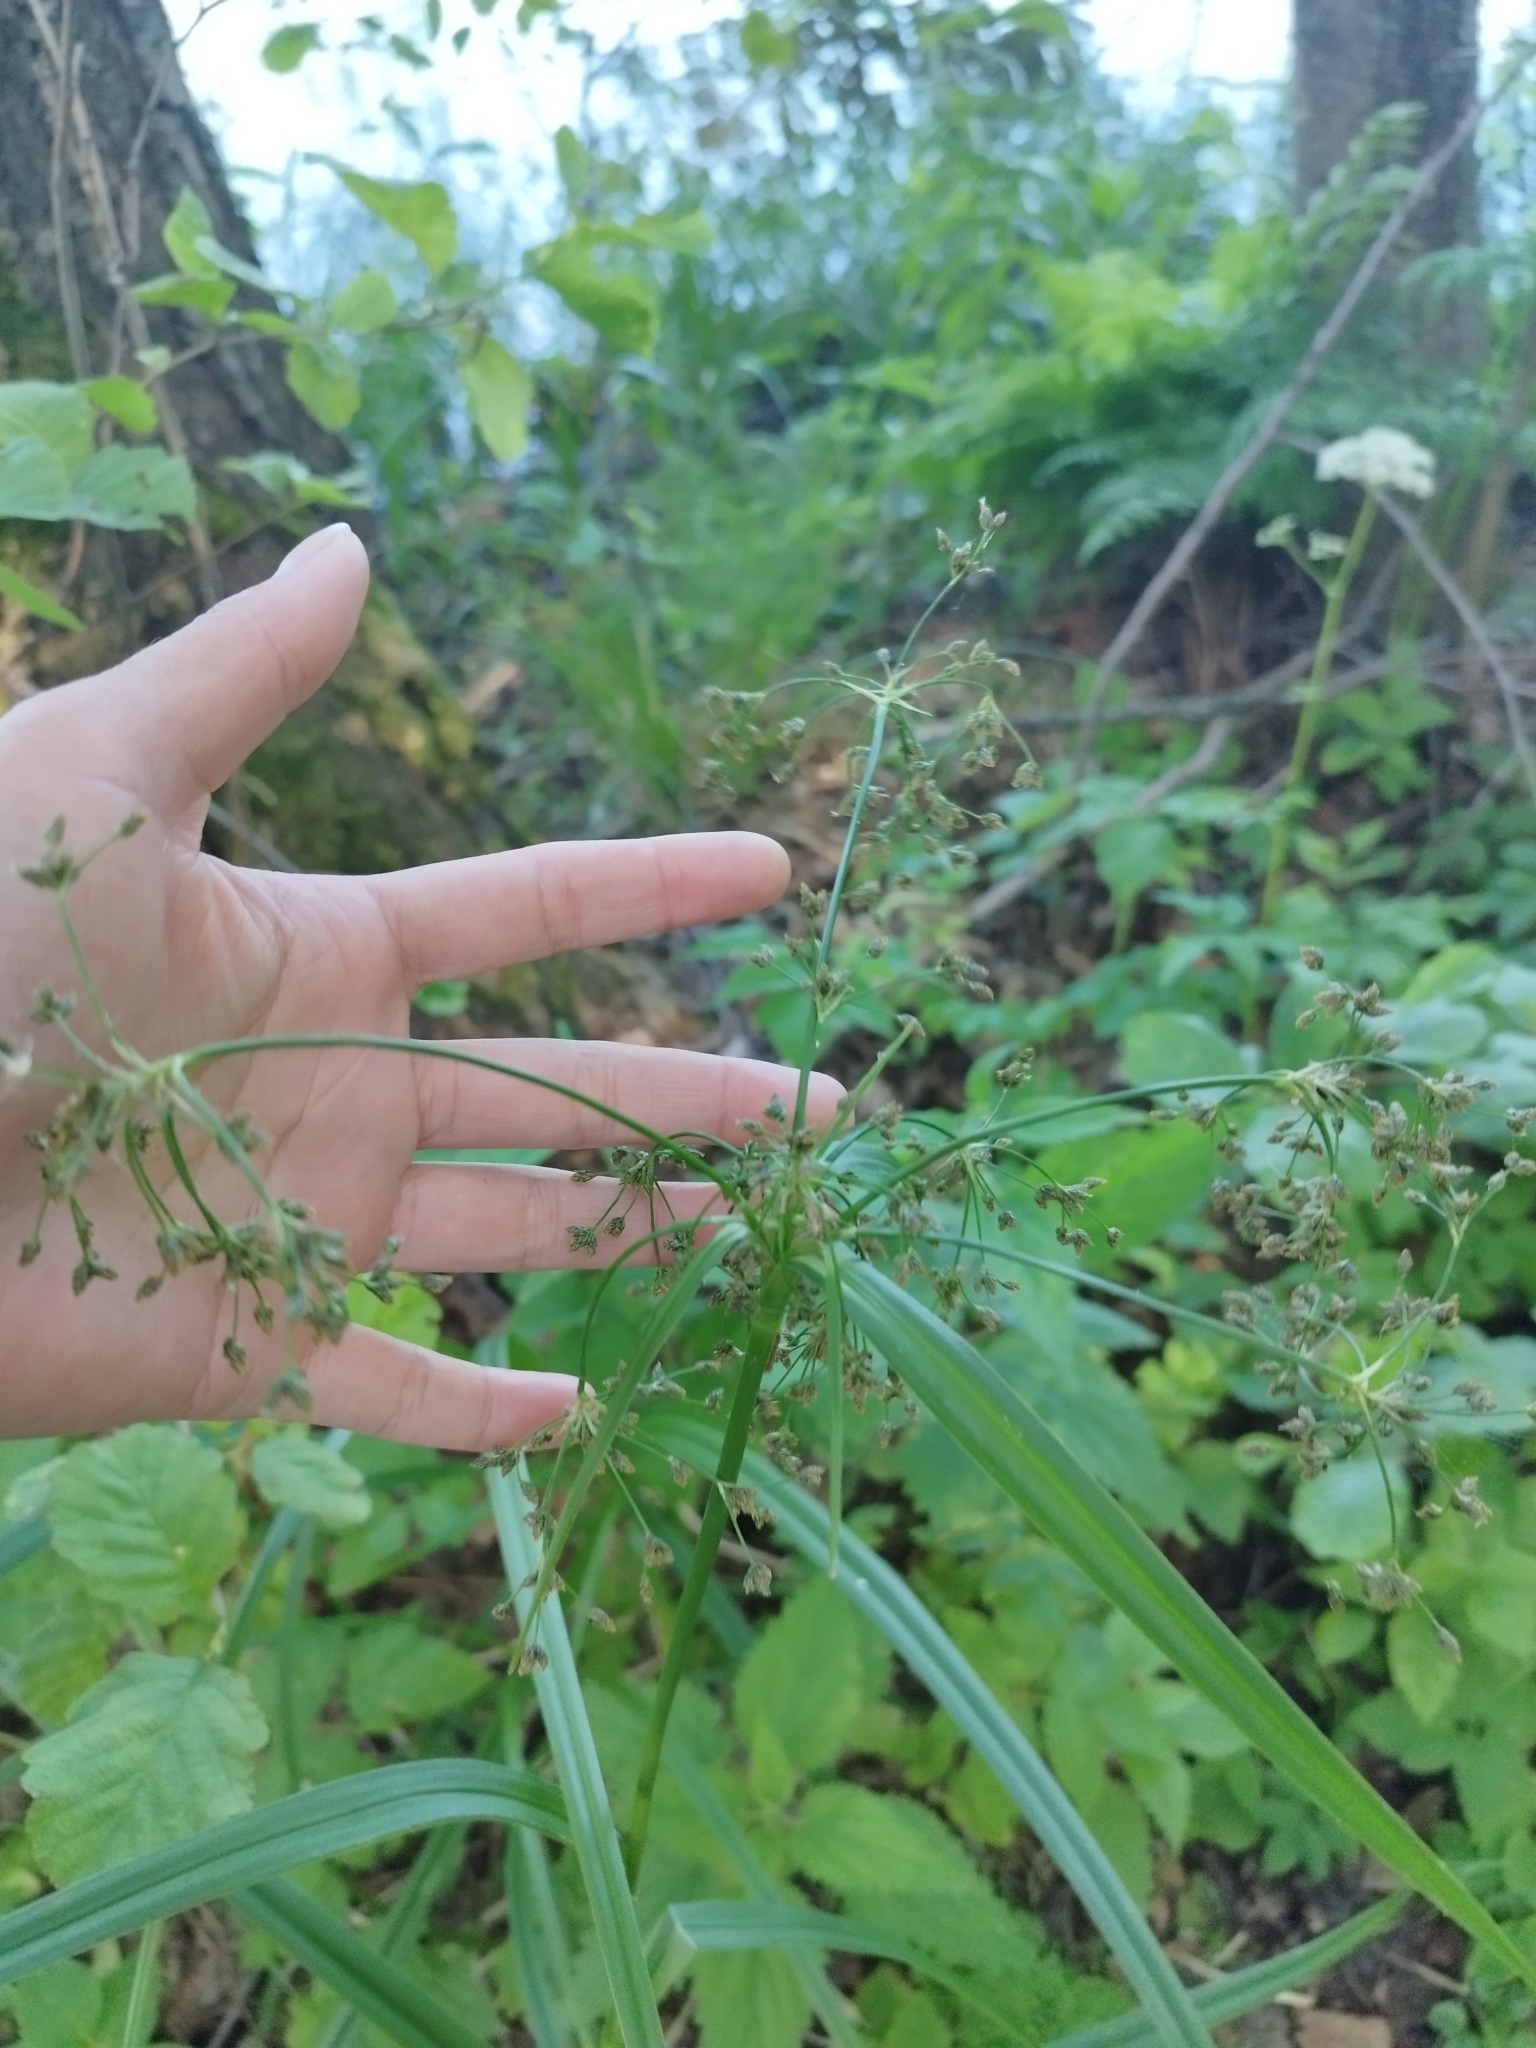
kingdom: Plantae
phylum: Tracheophyta
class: Liliopsida
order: Poales
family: Cyperaceae
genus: Scirpus
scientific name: Scirpus sylvaticus
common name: Wood club-rush
